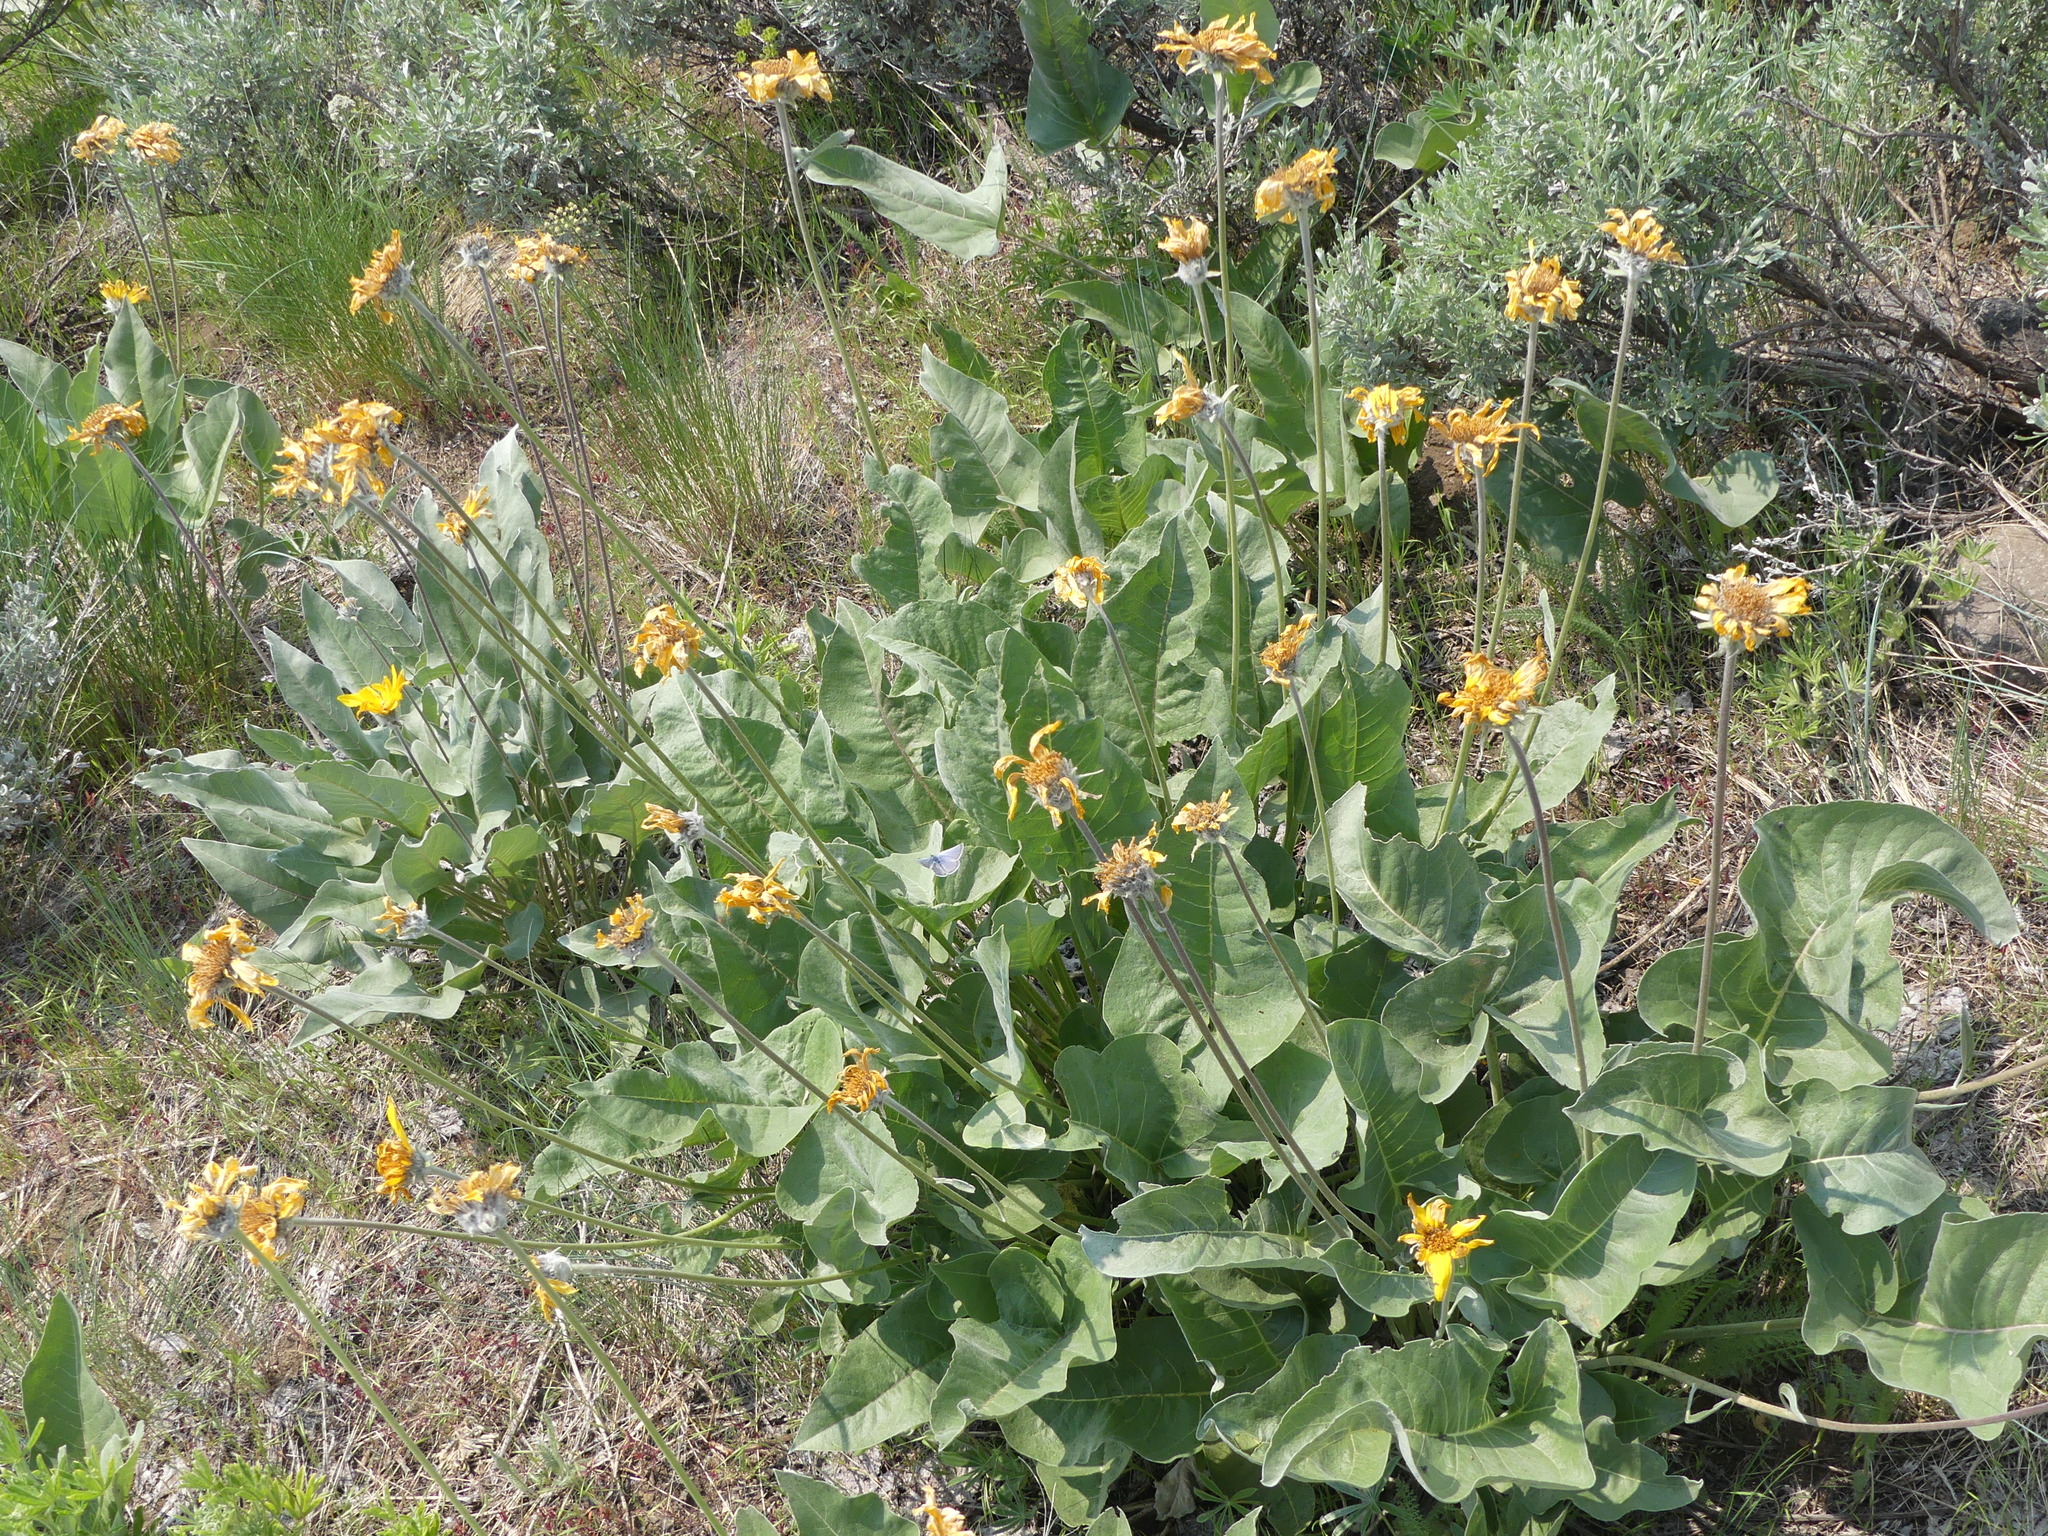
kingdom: Plantae
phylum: Tracheophyta
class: Magnoliopsida
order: Asterales
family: Asteraceae
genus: Wyethia
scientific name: Wyethia sagittata
